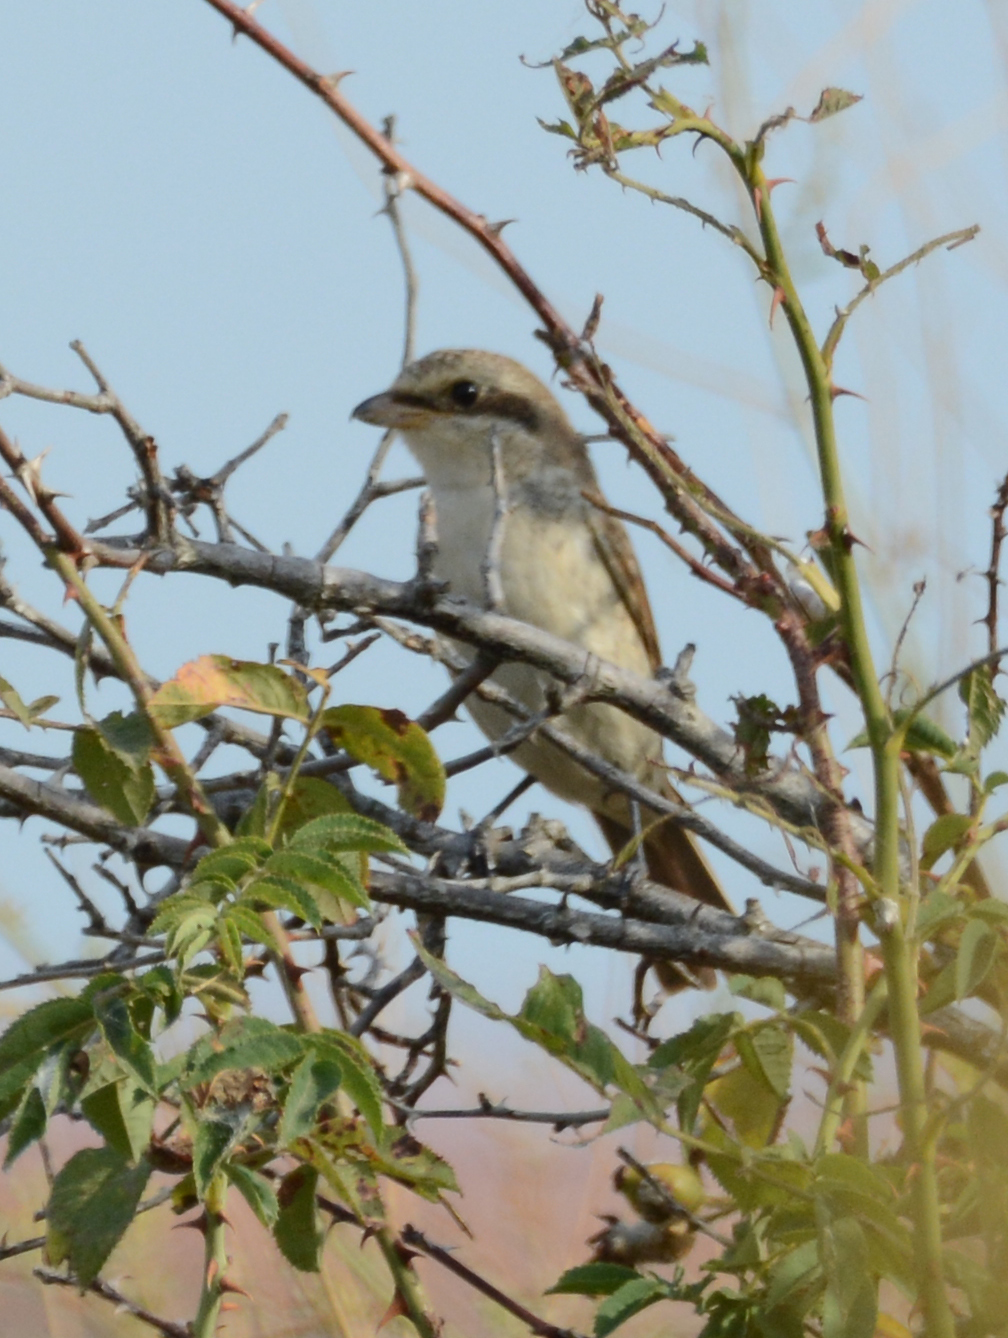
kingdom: Animalia
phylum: Chordata
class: Aves
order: Passeriformes
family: Laniidae
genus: Lanius
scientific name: Lanius collurio
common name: Red-backed shrike
